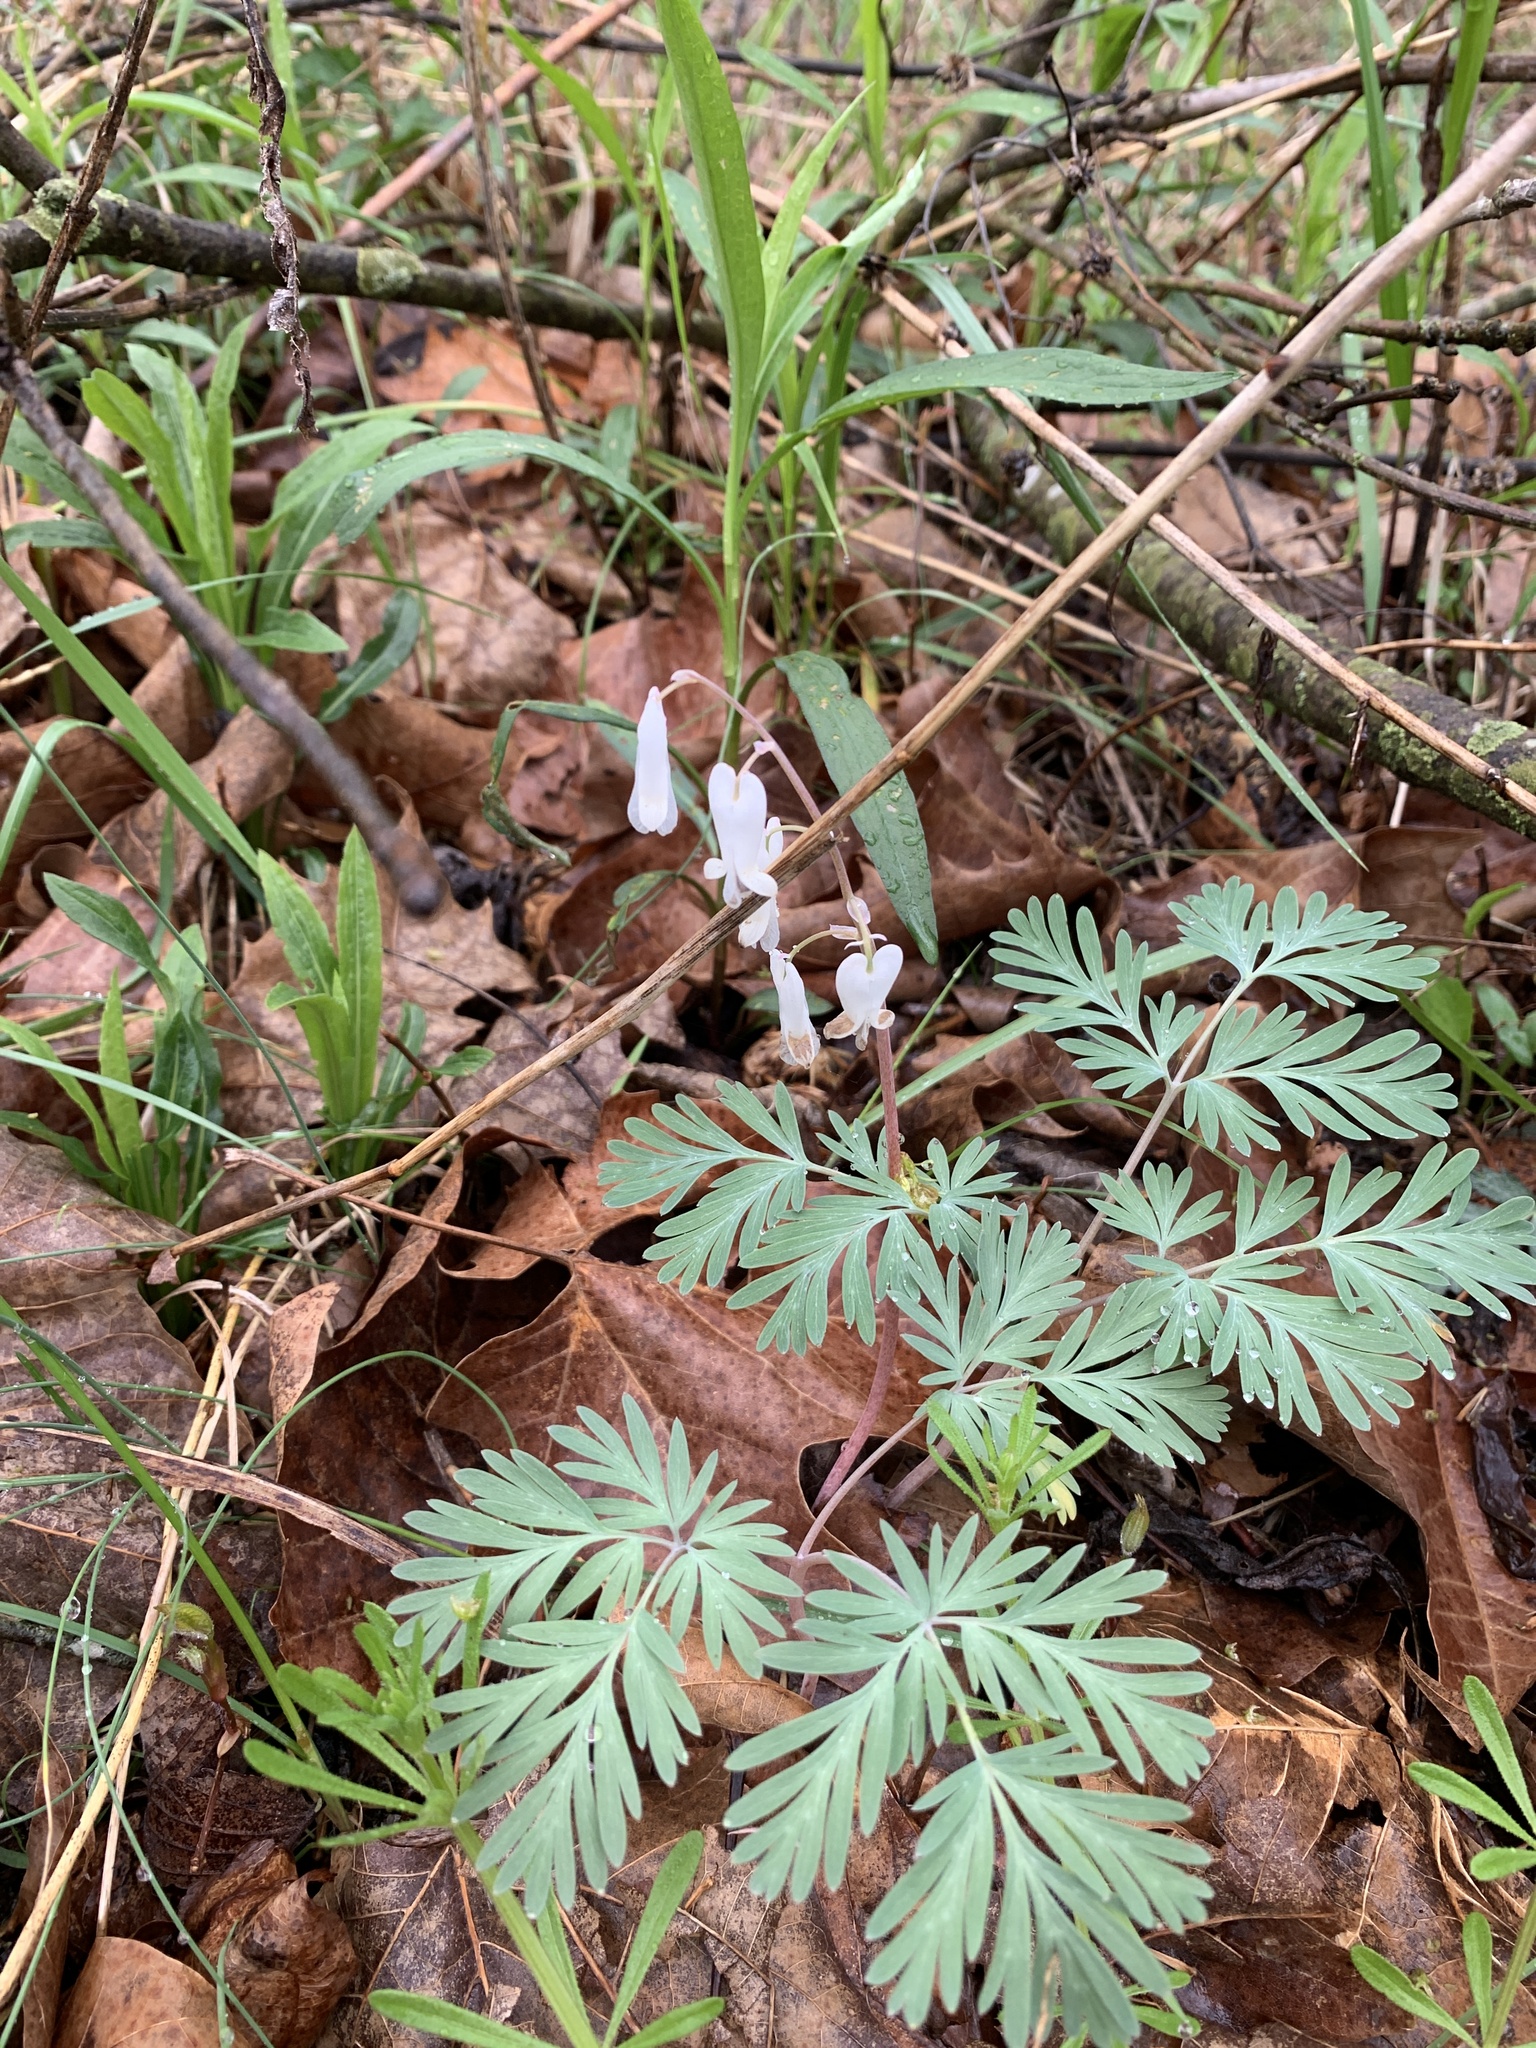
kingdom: Plantae
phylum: Tracheophyta
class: Magnoliopsida
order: Ranunculales
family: Papaveraceae
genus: Dicentra
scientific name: Dicentra canadensis
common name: Squirrel-corn
